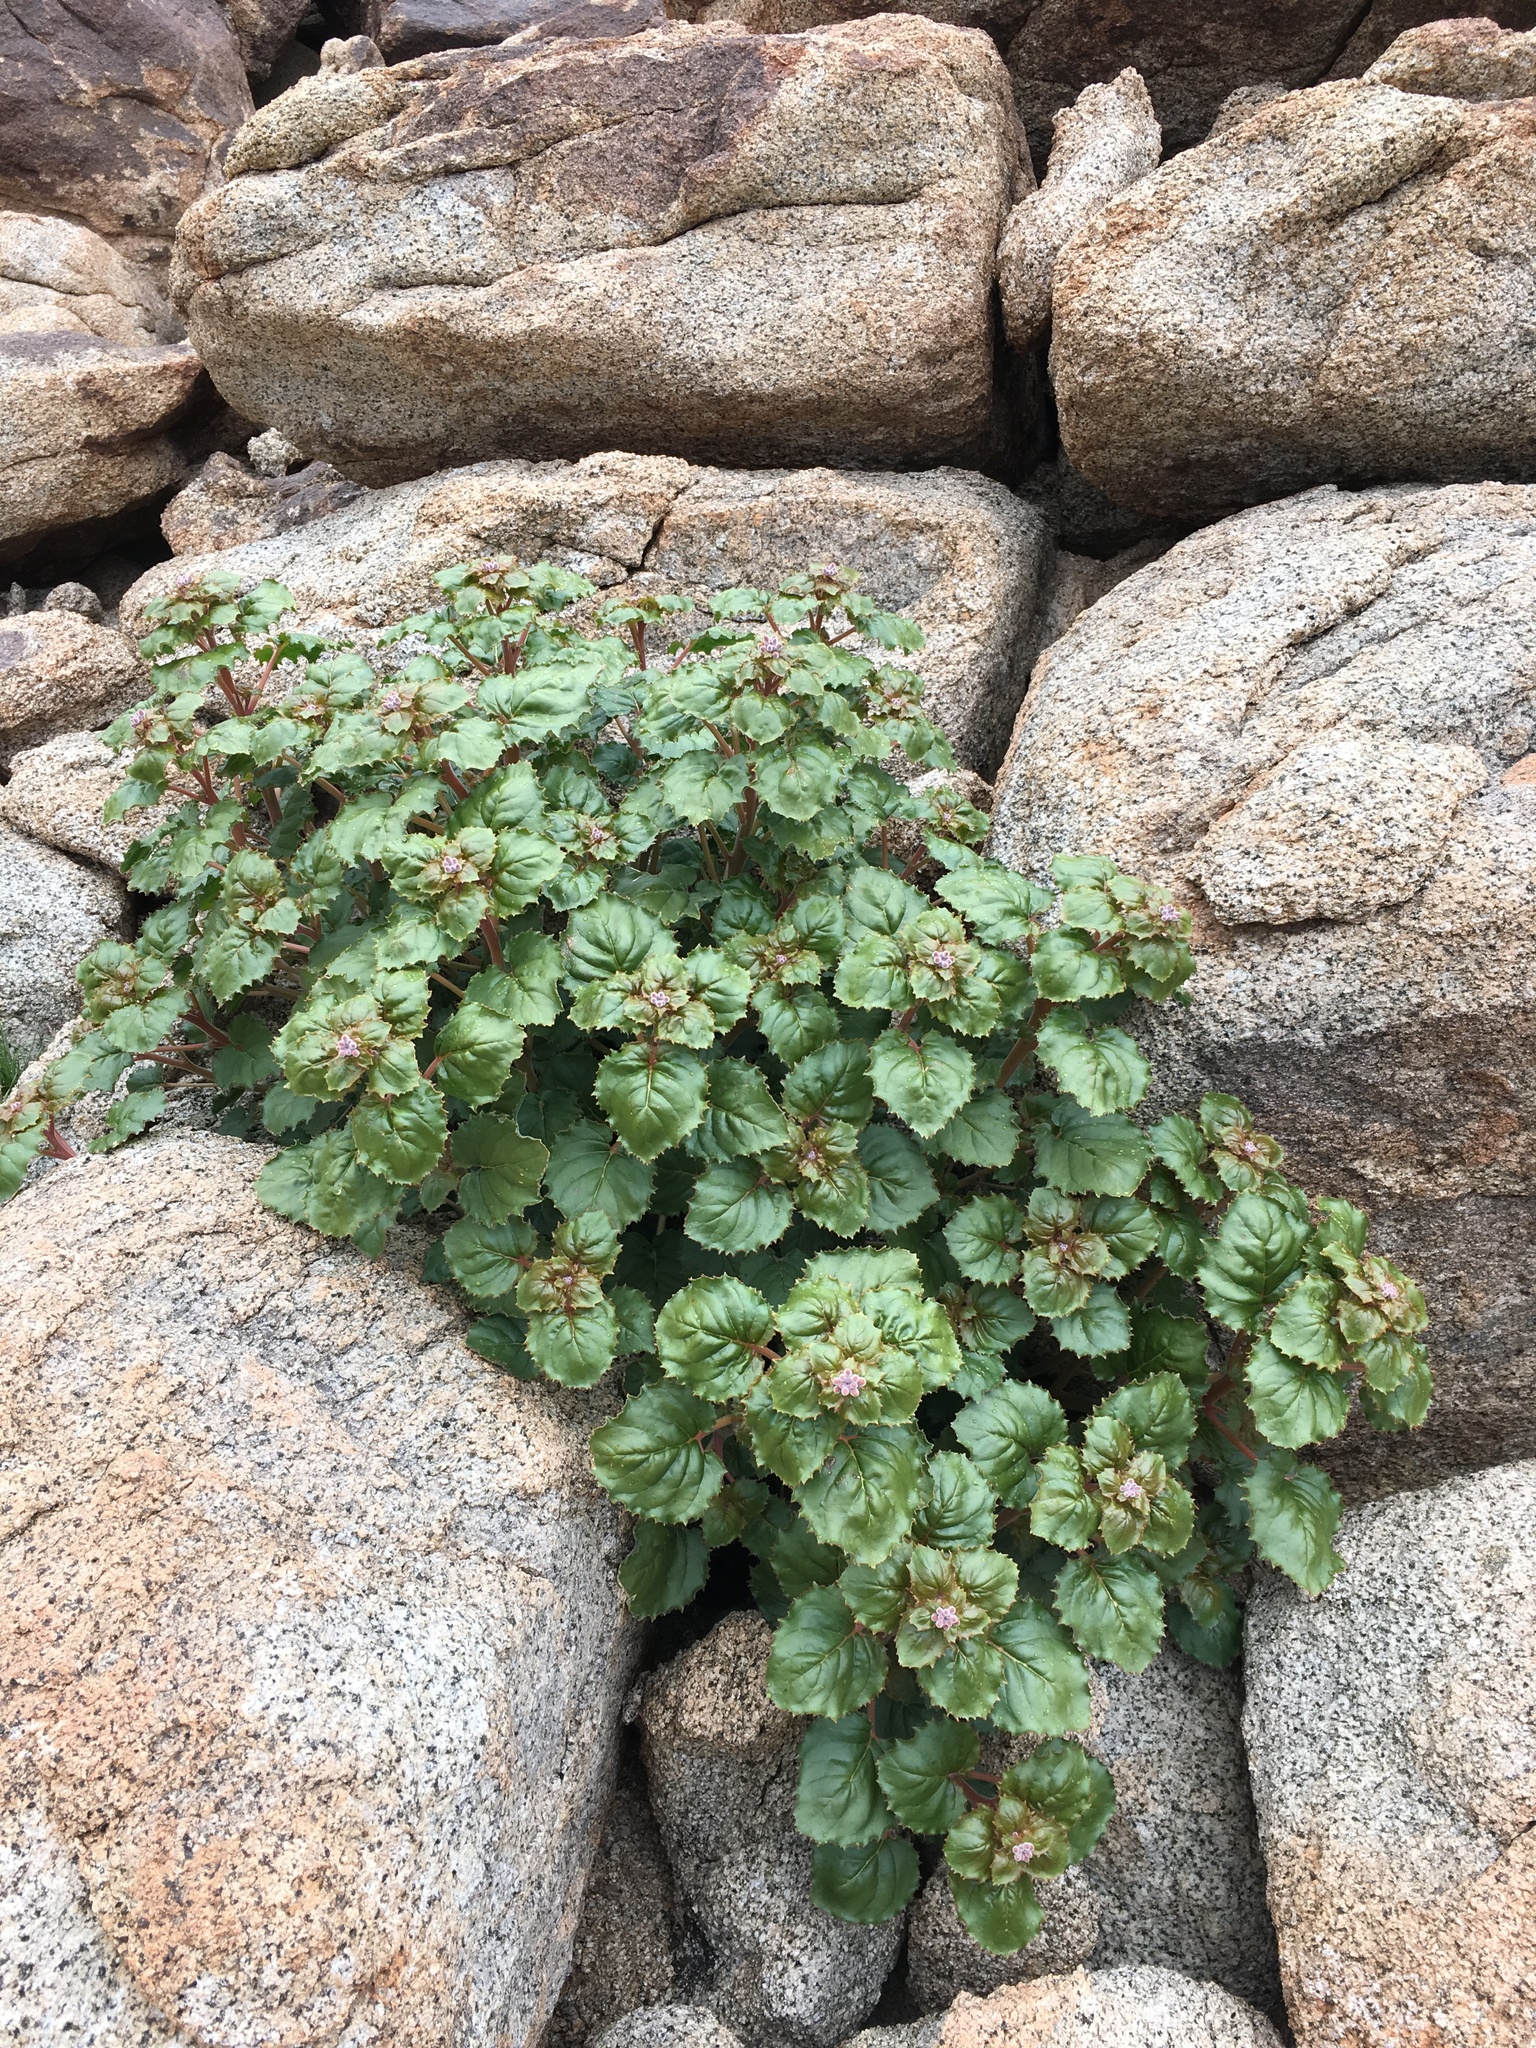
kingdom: Plantae
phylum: Tracheophyta
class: Magnoliopsida
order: Myrtales
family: Onagraceae
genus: Chylismia
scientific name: Chylismia cardiophylla
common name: Heartleaf suncup
